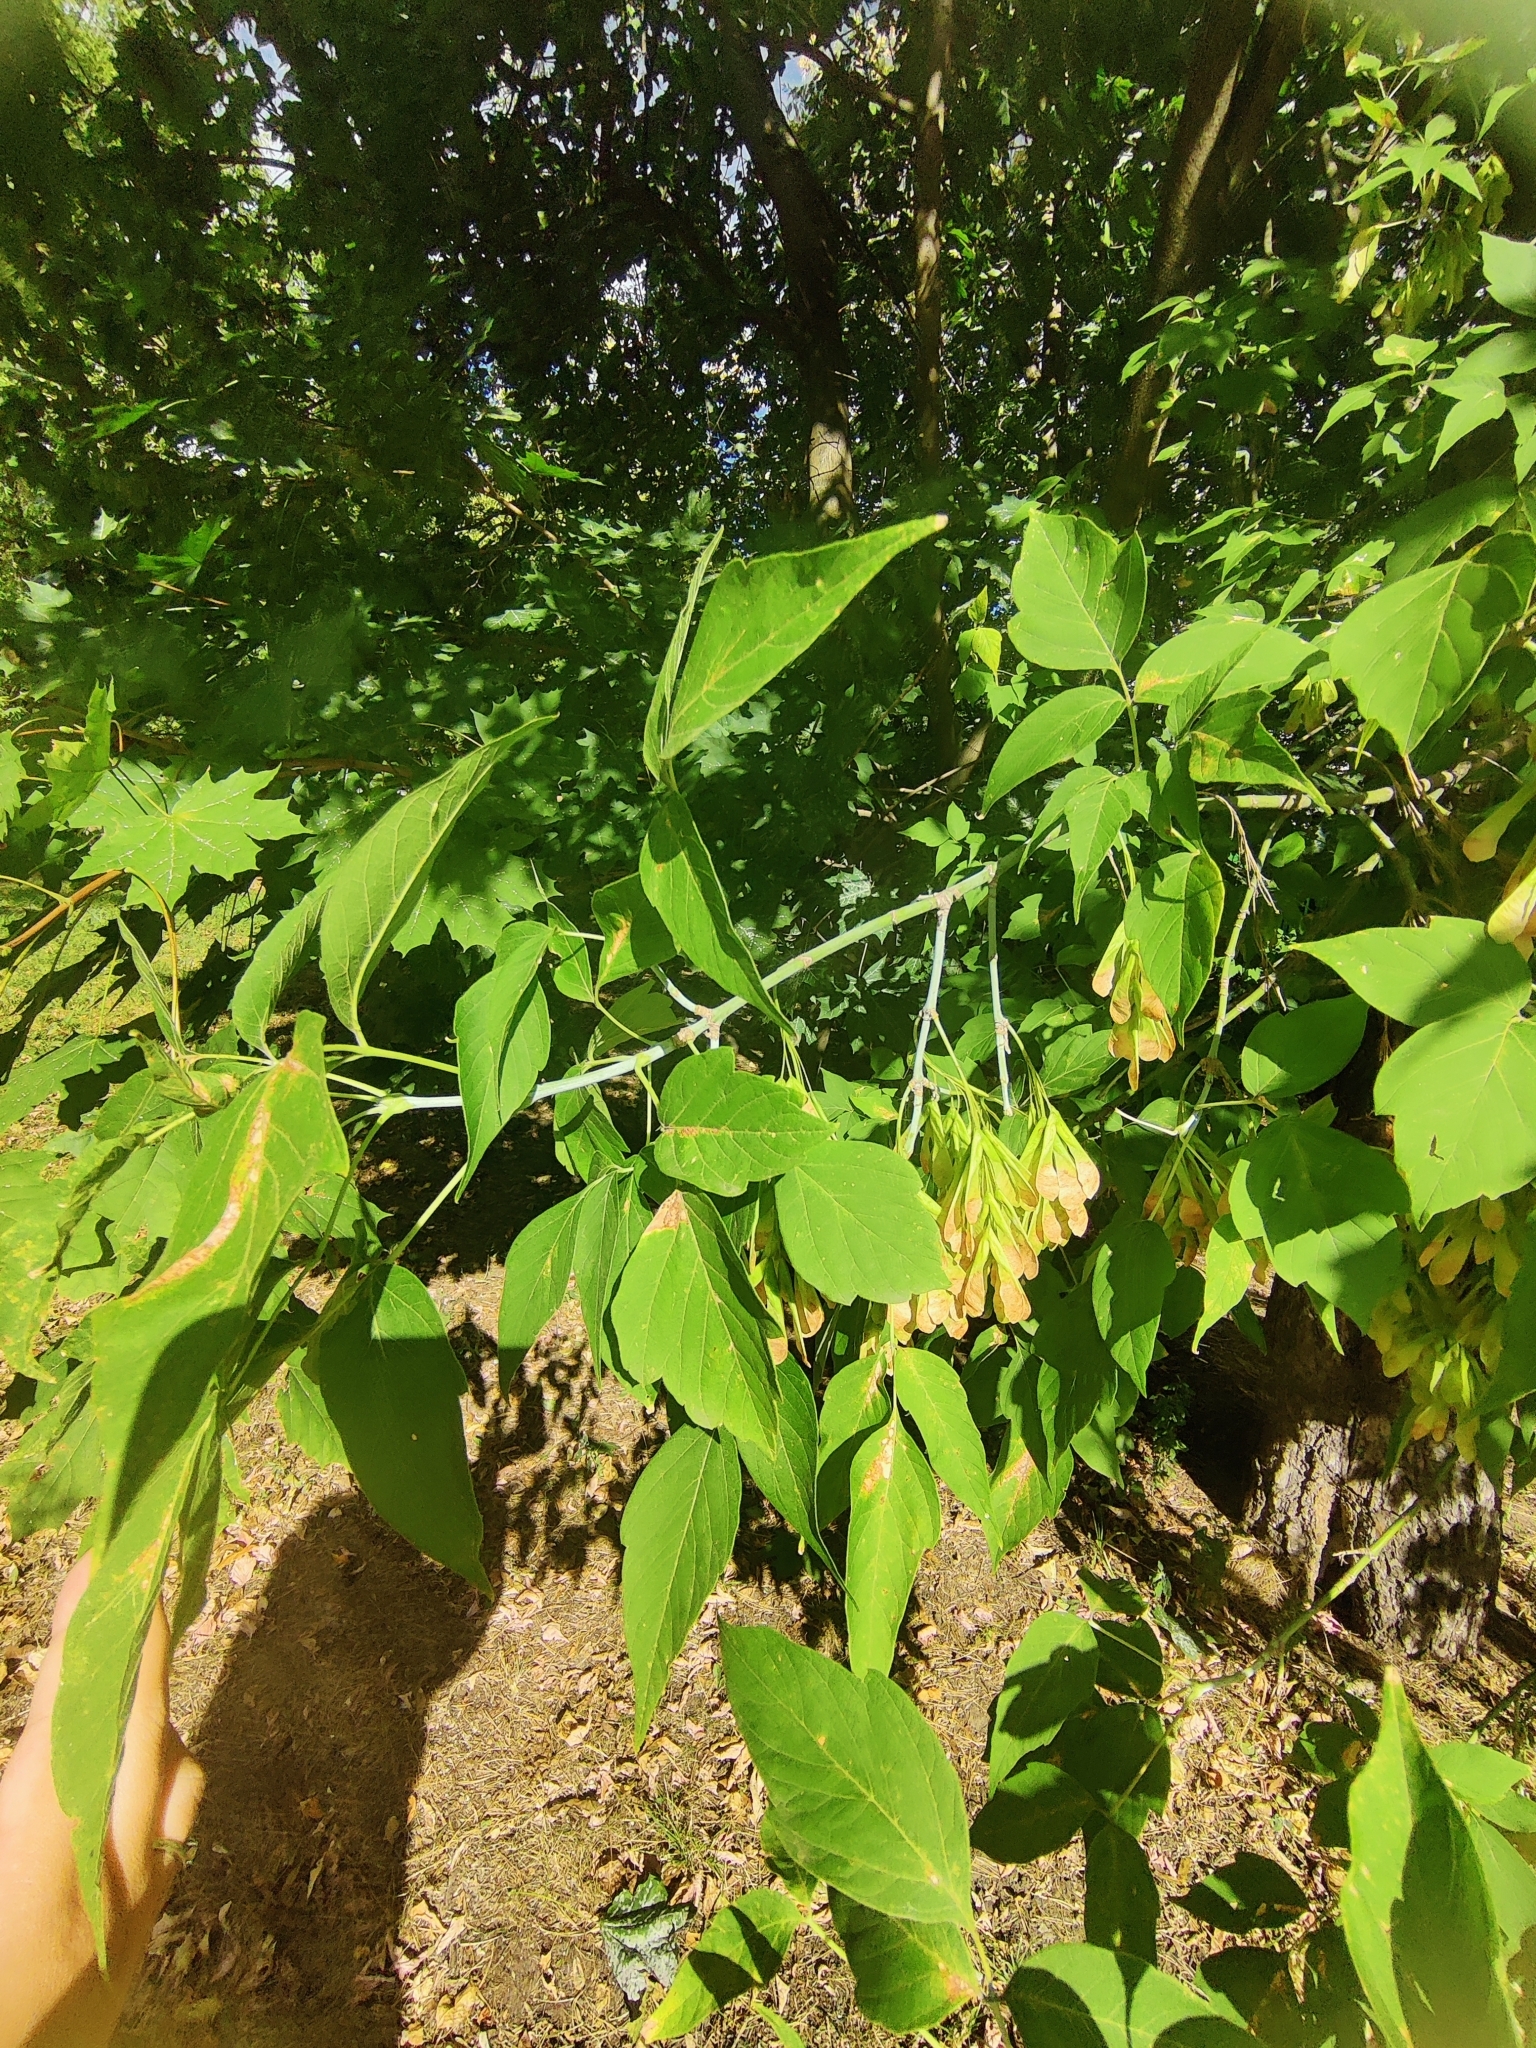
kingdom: Plantae
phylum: Tracheophyta
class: Magnoliopsida
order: Sapindales
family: Sapindaceae
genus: Acer
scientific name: Acer negundo
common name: Ashleaf maple
